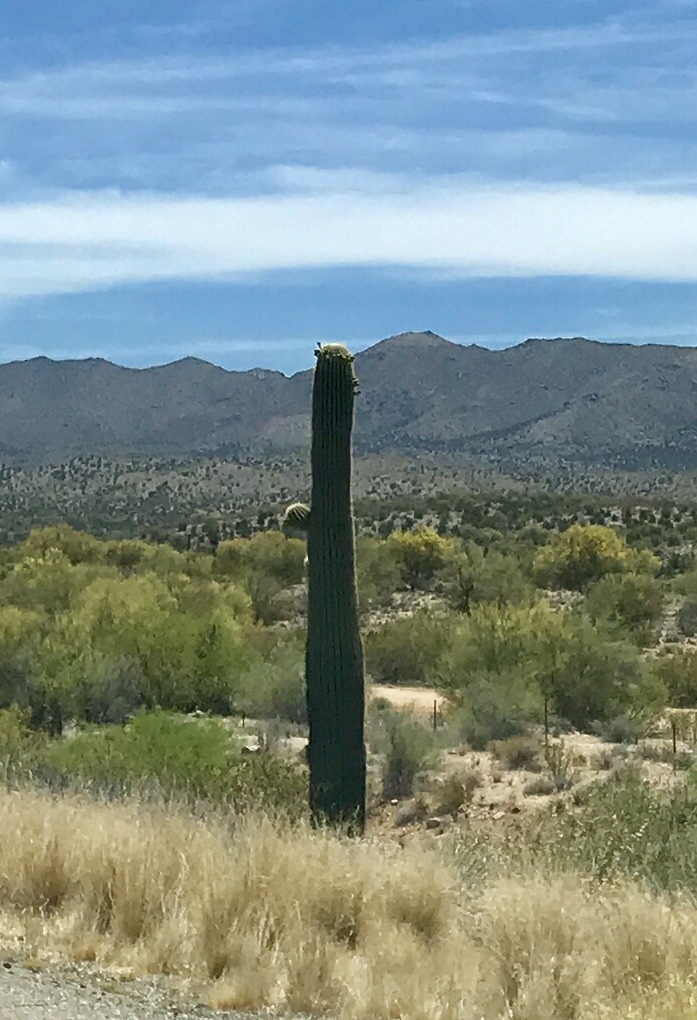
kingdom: Plantae
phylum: Tracheophyta
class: Magnoliopsida
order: Caryophyllales
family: Cactaceae
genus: Carnegiea
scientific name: Carnegiea gigantea
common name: Saguaro
